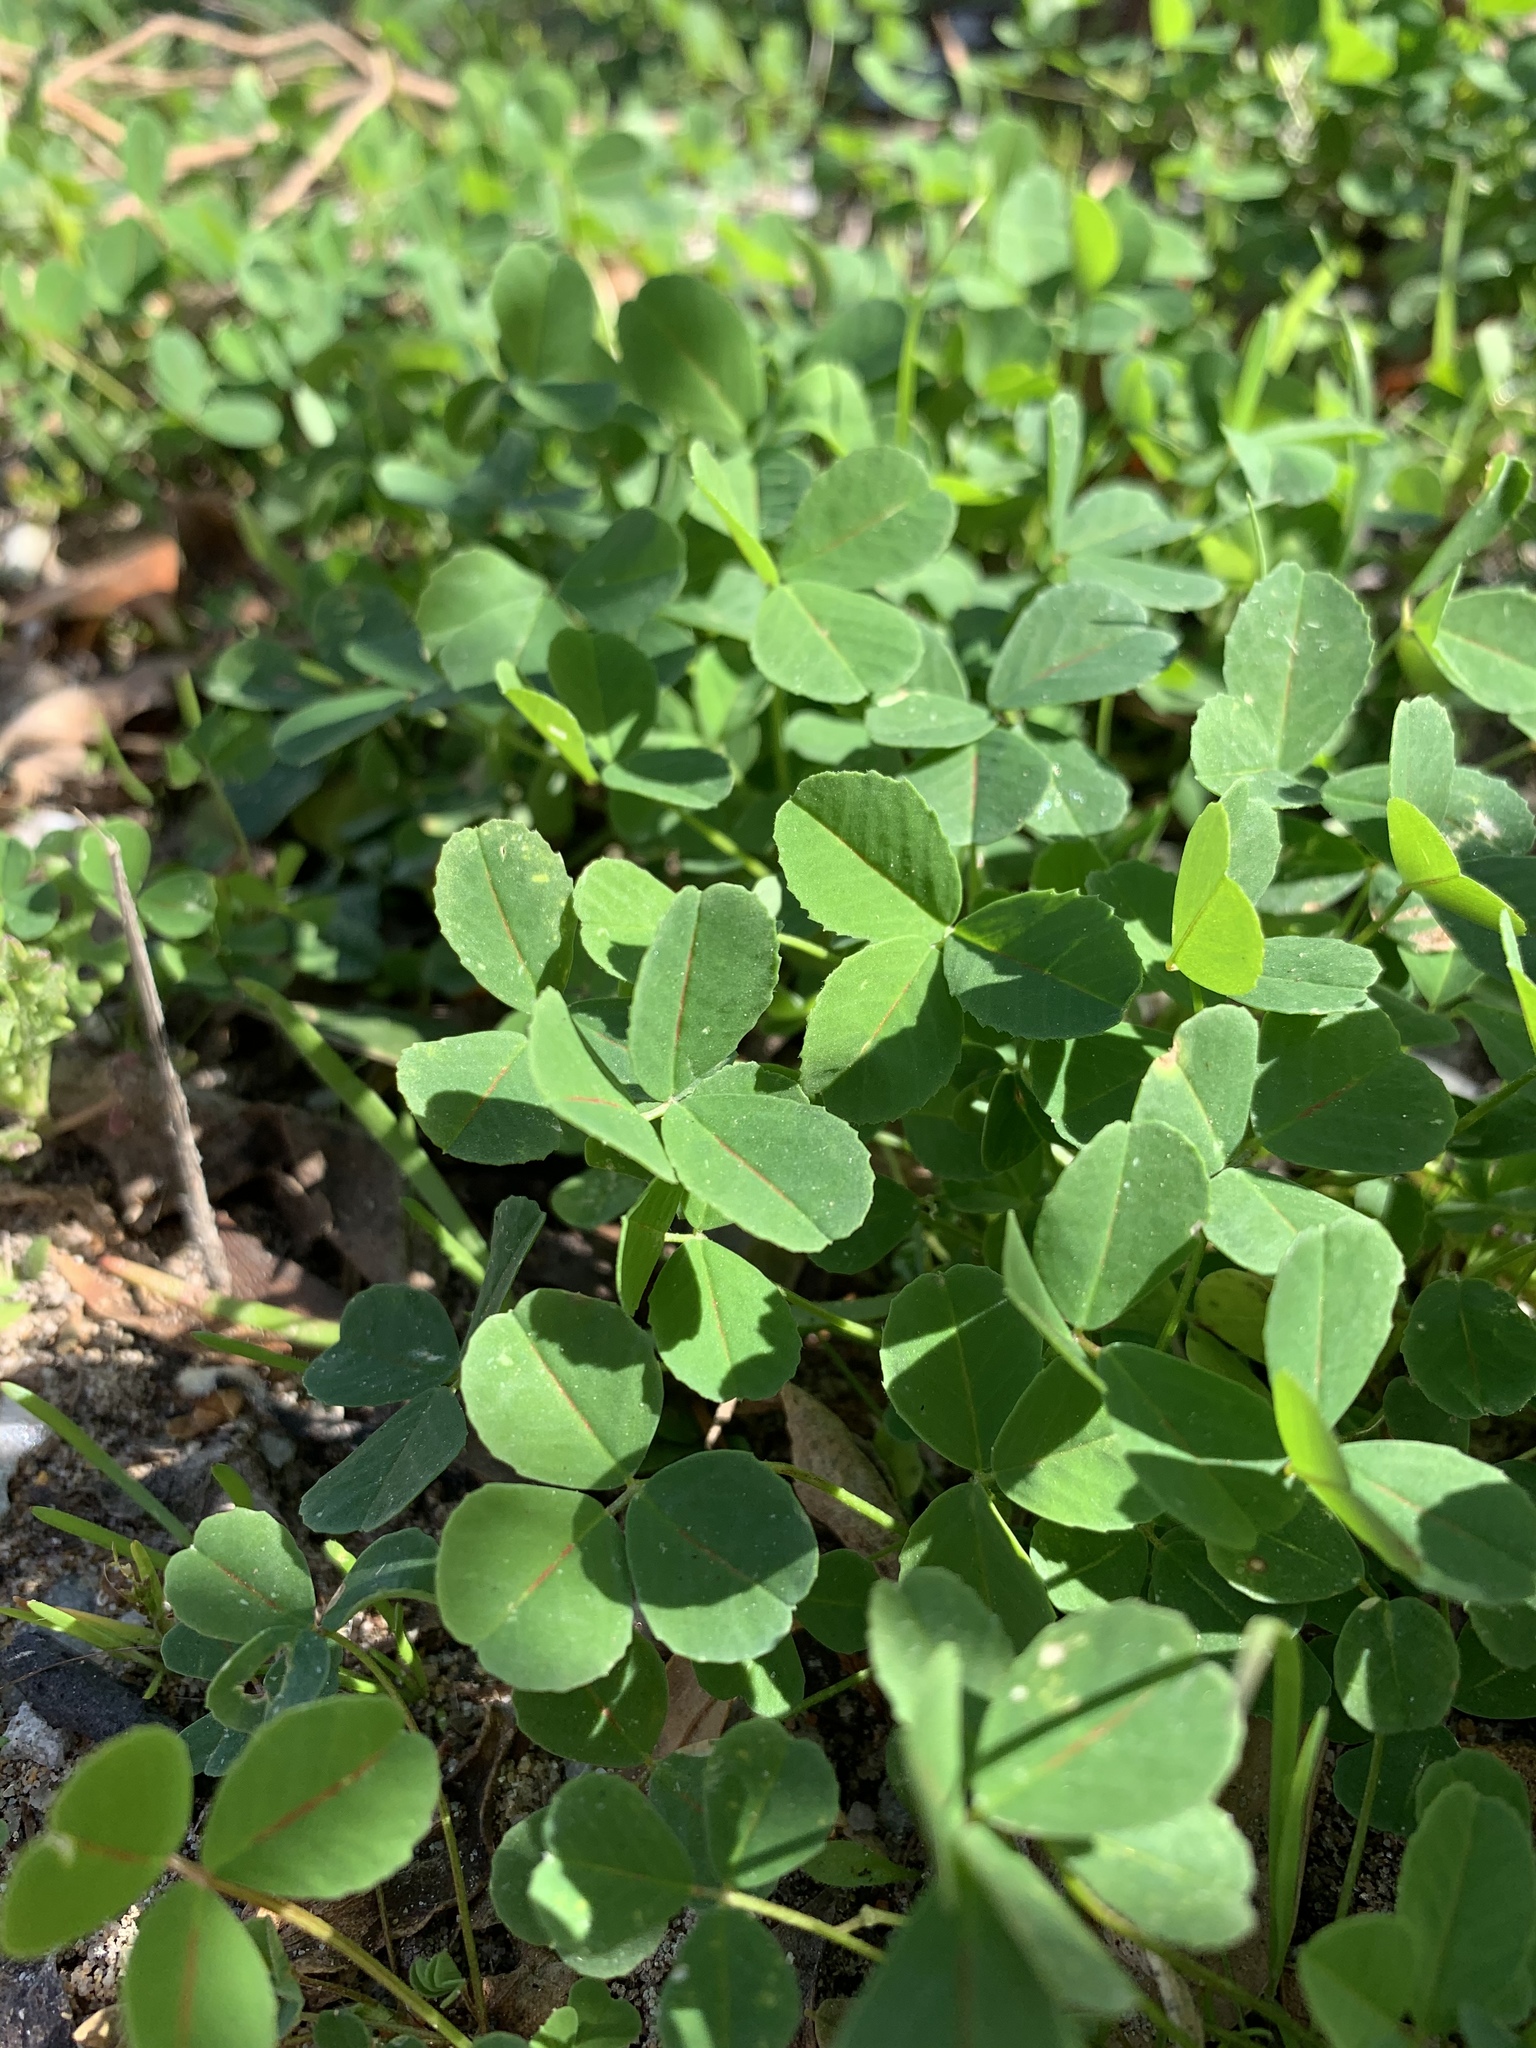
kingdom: Plantae
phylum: Tracheophyta
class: Magnoliopsida
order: Fabales
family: Fabaceae
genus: Medicago
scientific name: Medicago polymorpha
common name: Burclover
